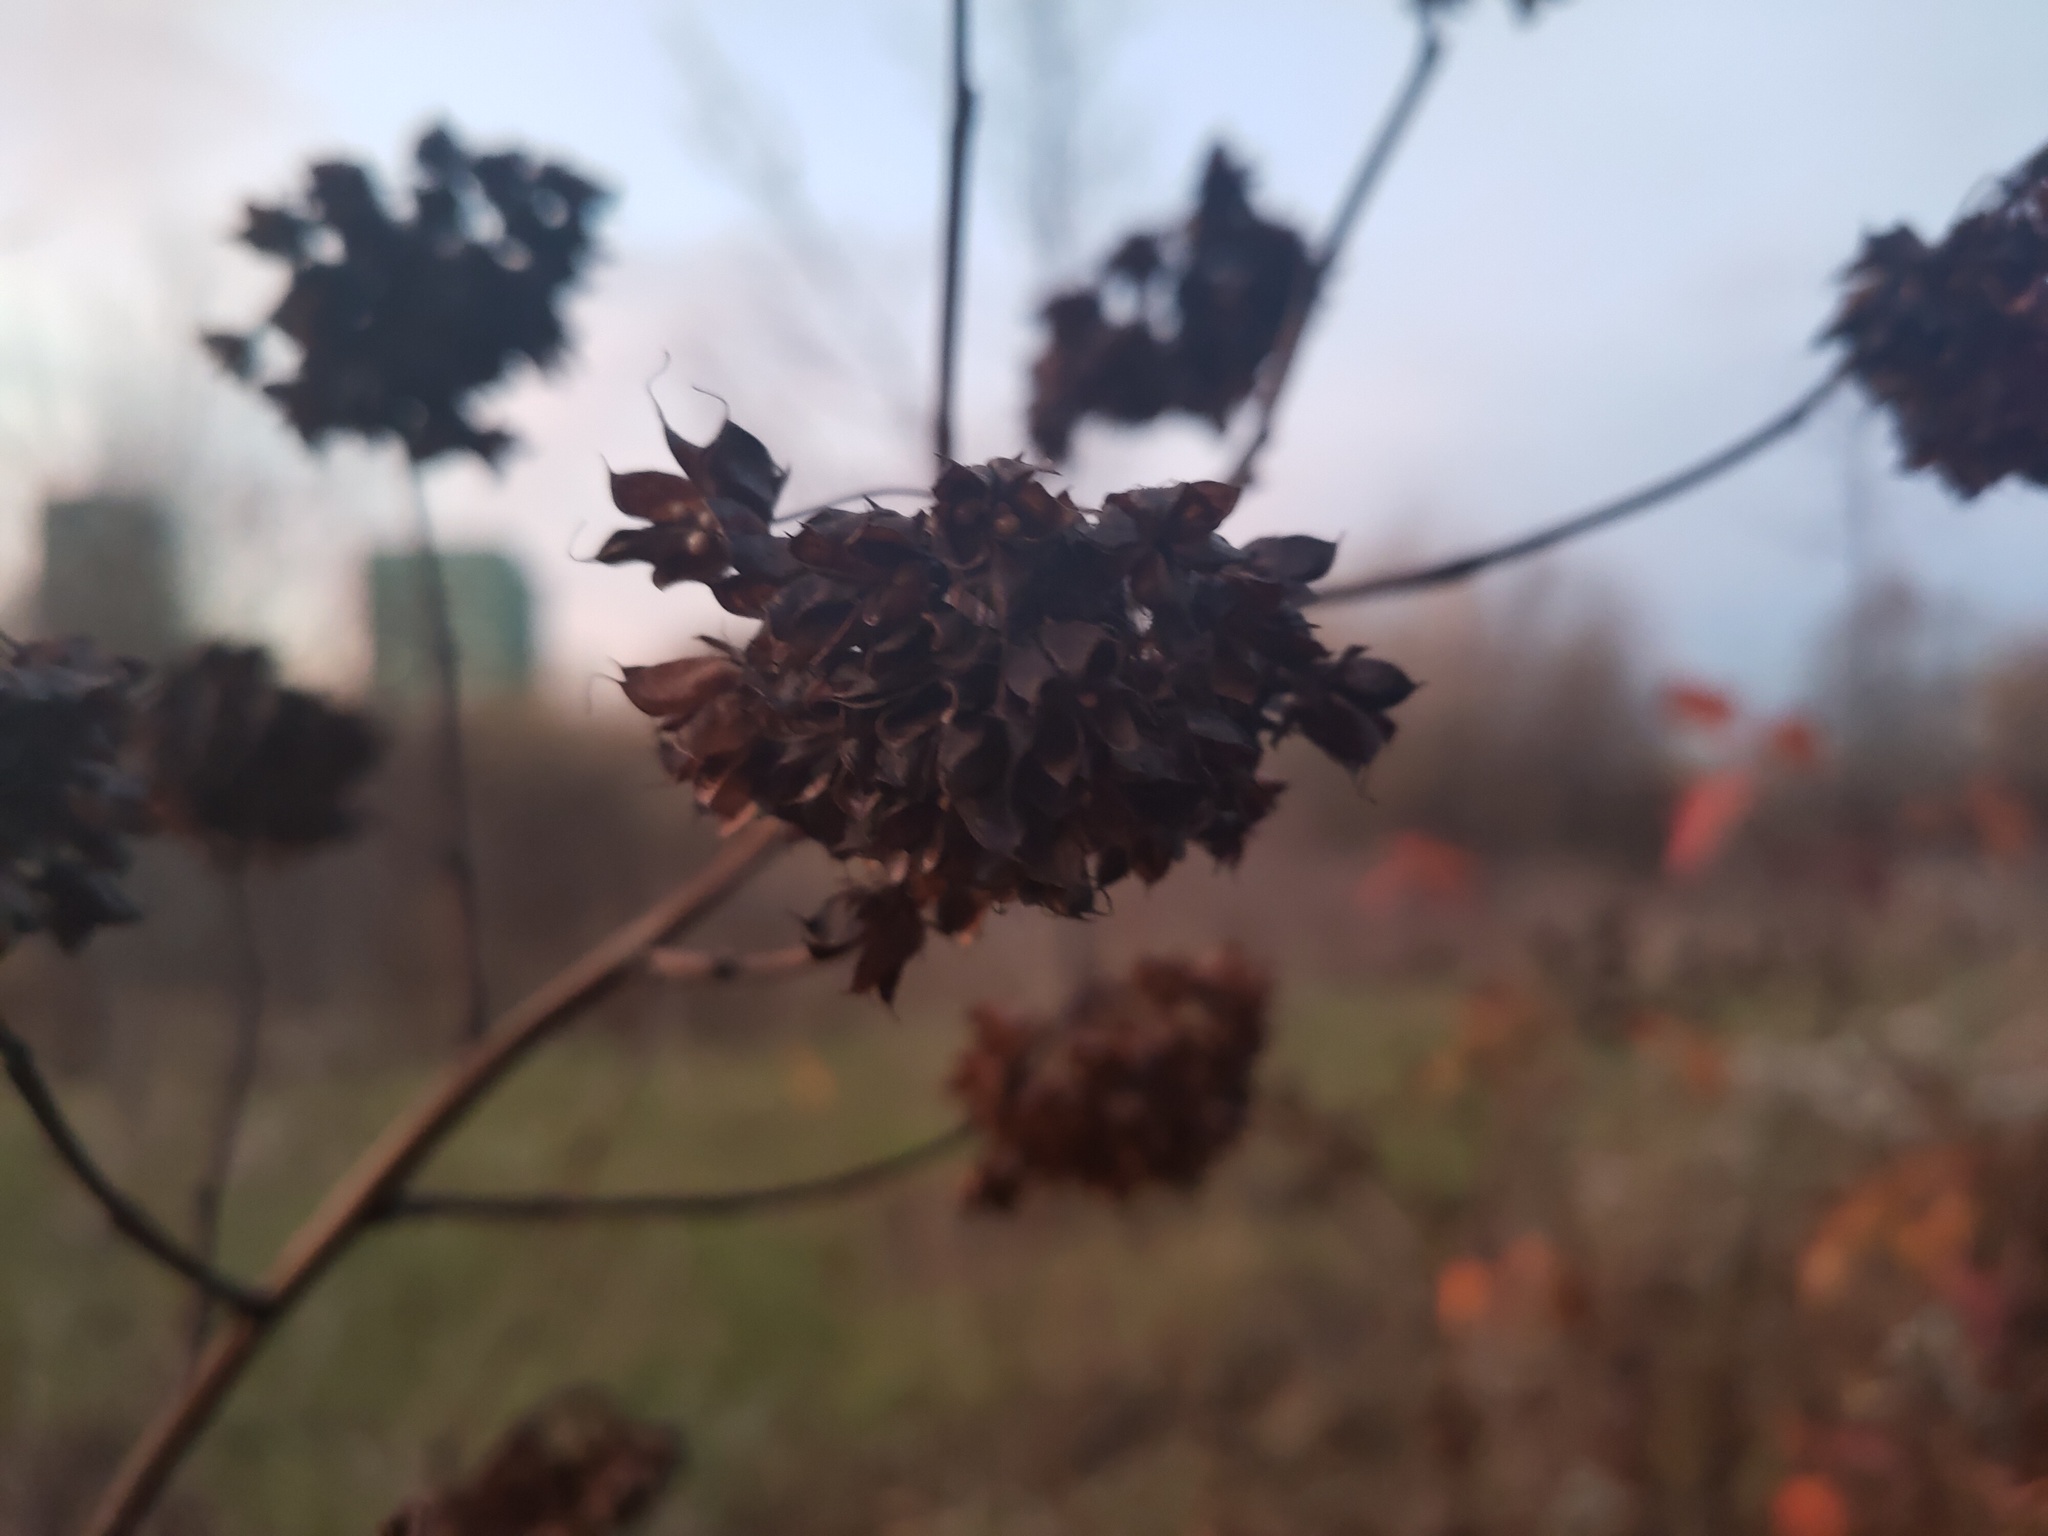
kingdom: Plantae
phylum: Tracheophyta
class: Magnoliopsida
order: Rosales
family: Rosaceae
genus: Physocarpus
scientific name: Physocarpus opulifolius
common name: Ninebark
